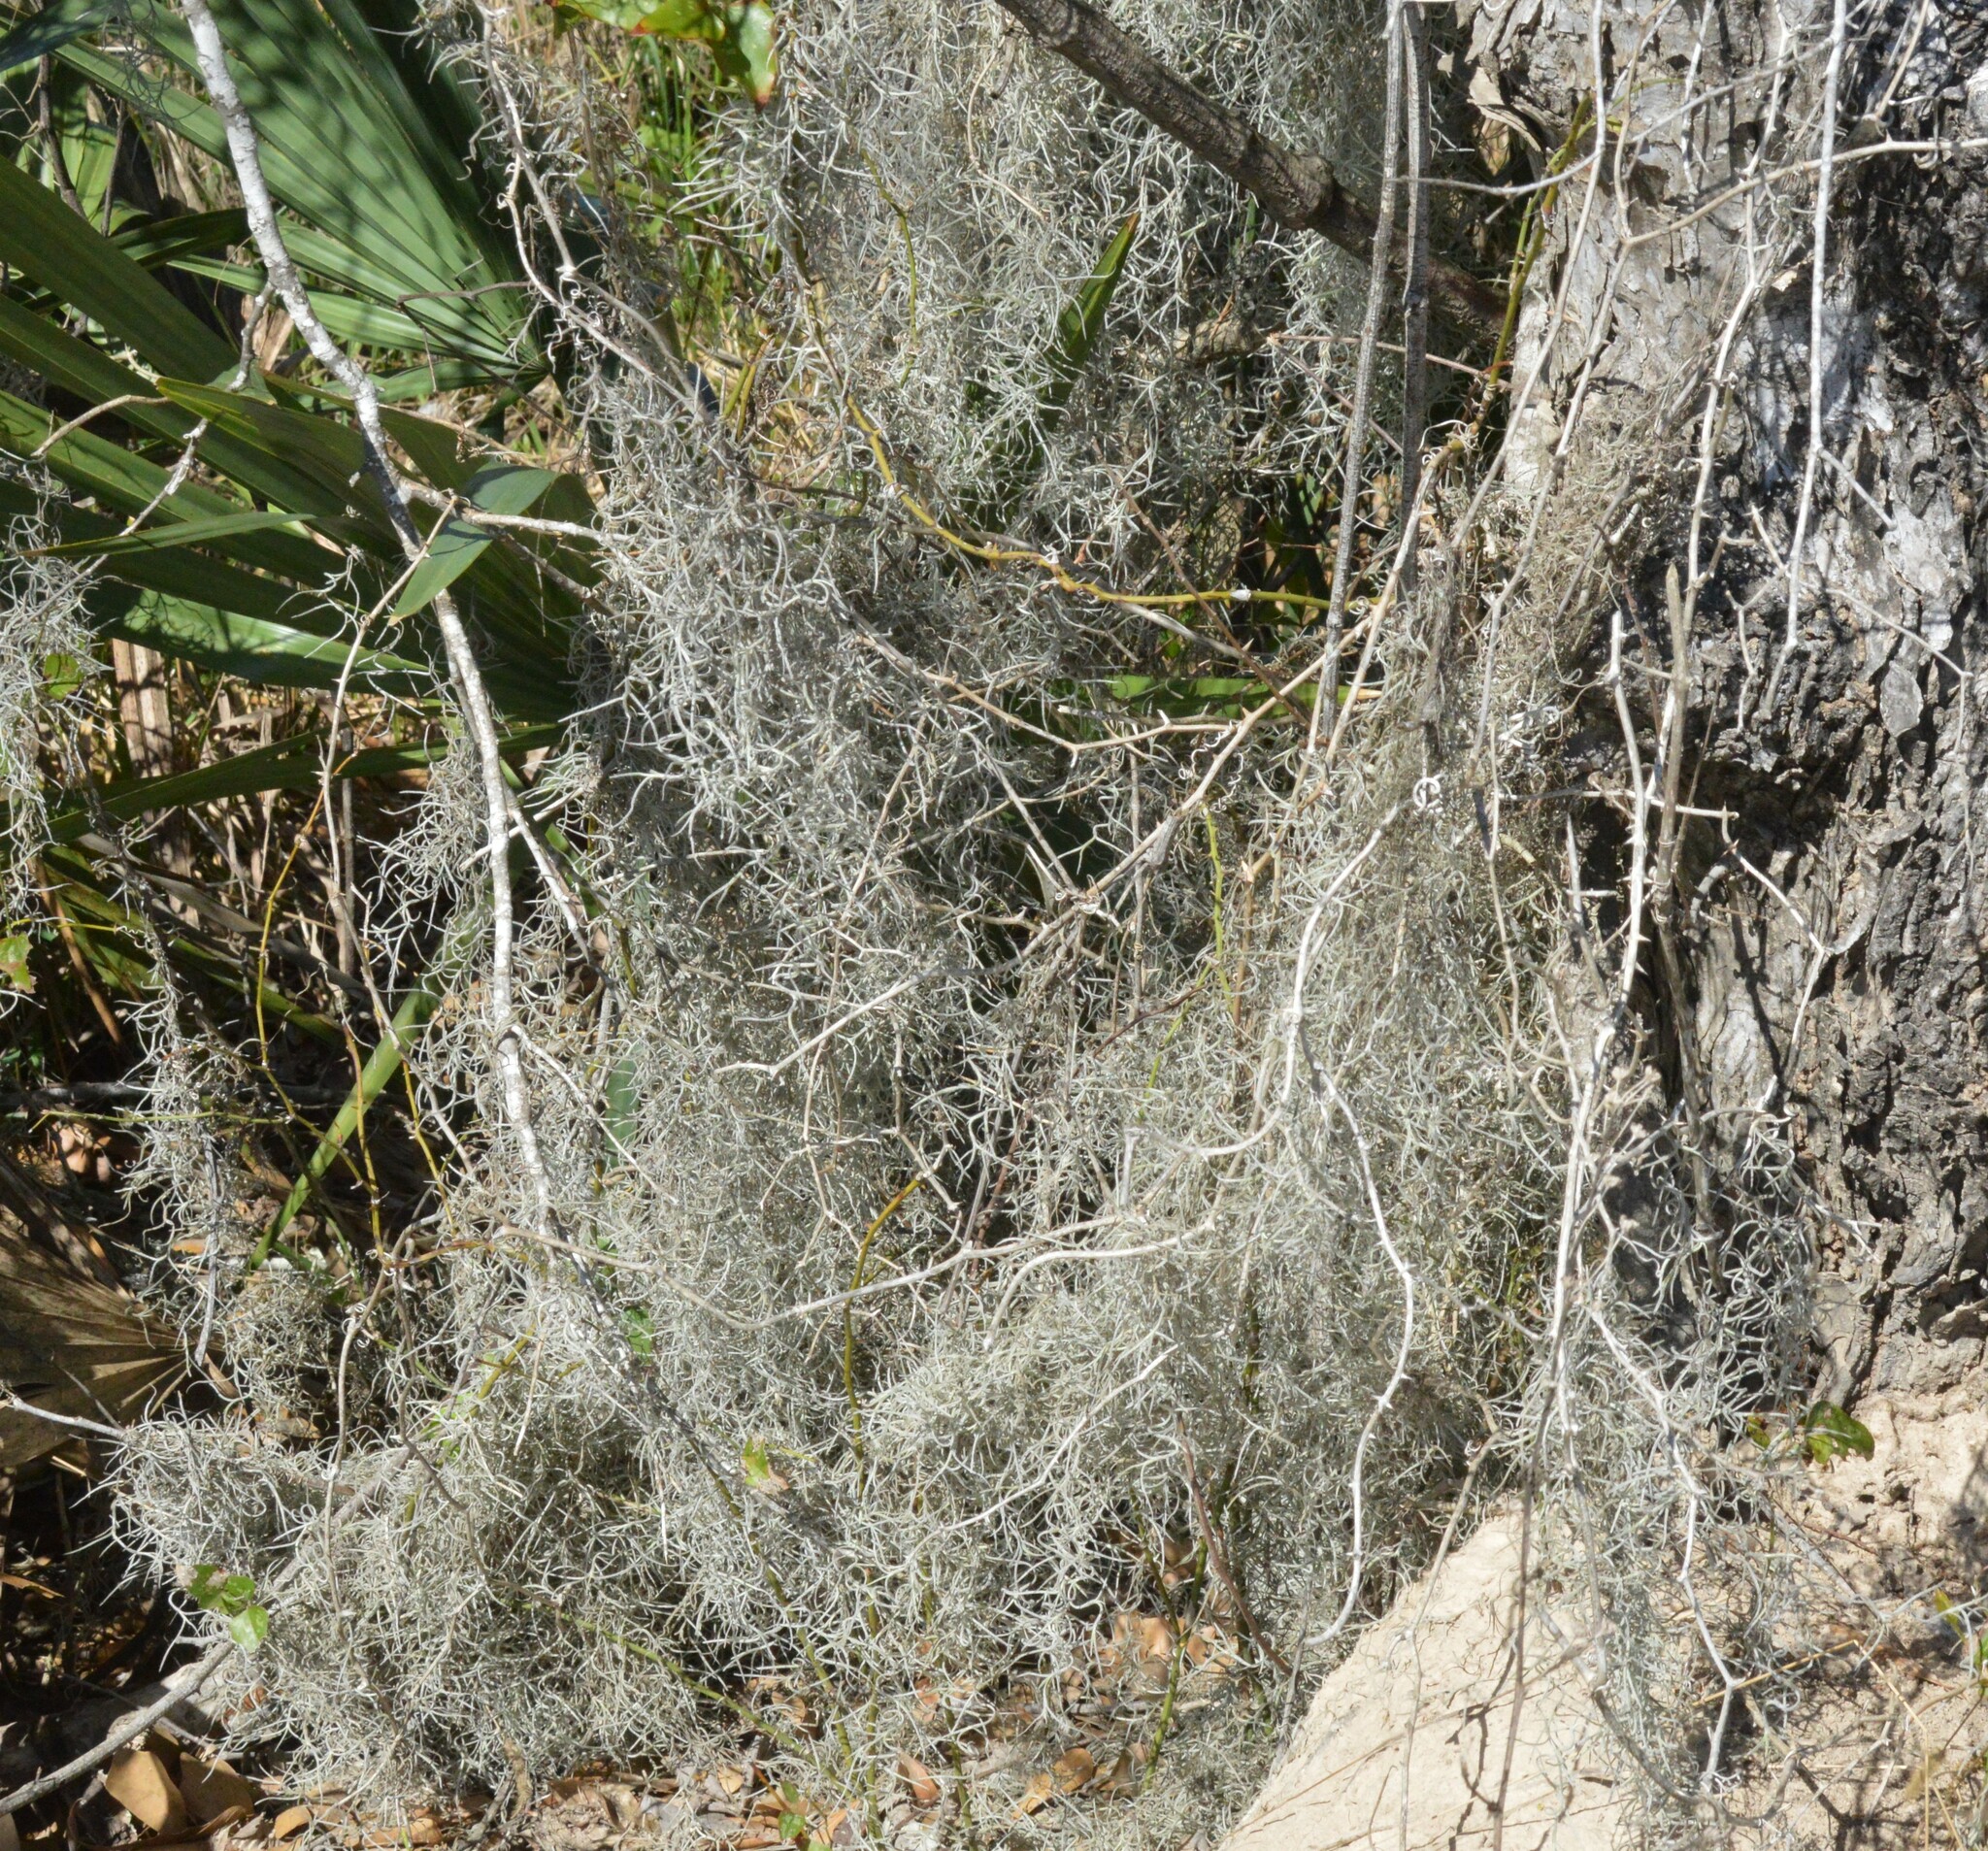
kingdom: Plantae
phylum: Tracheophyta
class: Liliopsida
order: Poales
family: Bromeliaceae
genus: Tillandsia
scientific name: Tillandsia usneoides
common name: Spanish moss
